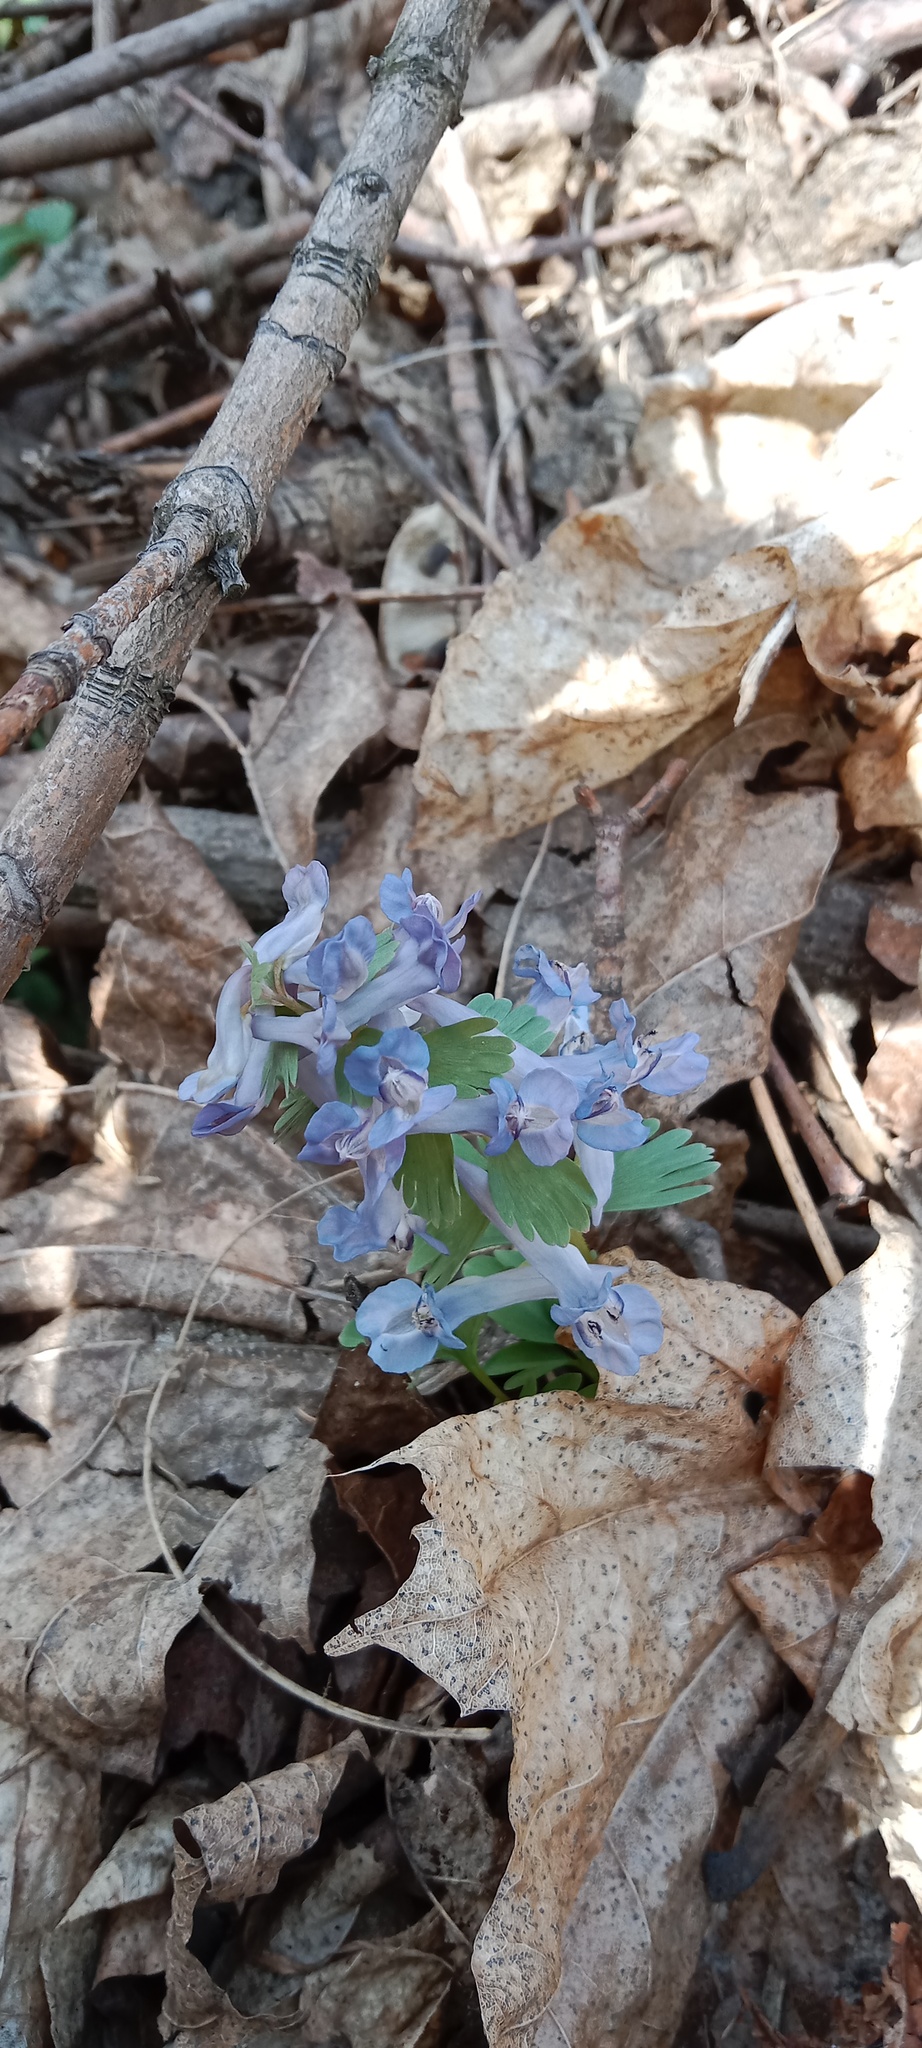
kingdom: Plantae
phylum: Tracheophyta
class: Magnoliopsida
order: Ranunculales
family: Papaveraceae
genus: Corydalis
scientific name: Corydalis solida
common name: Bird-in-a-bush
